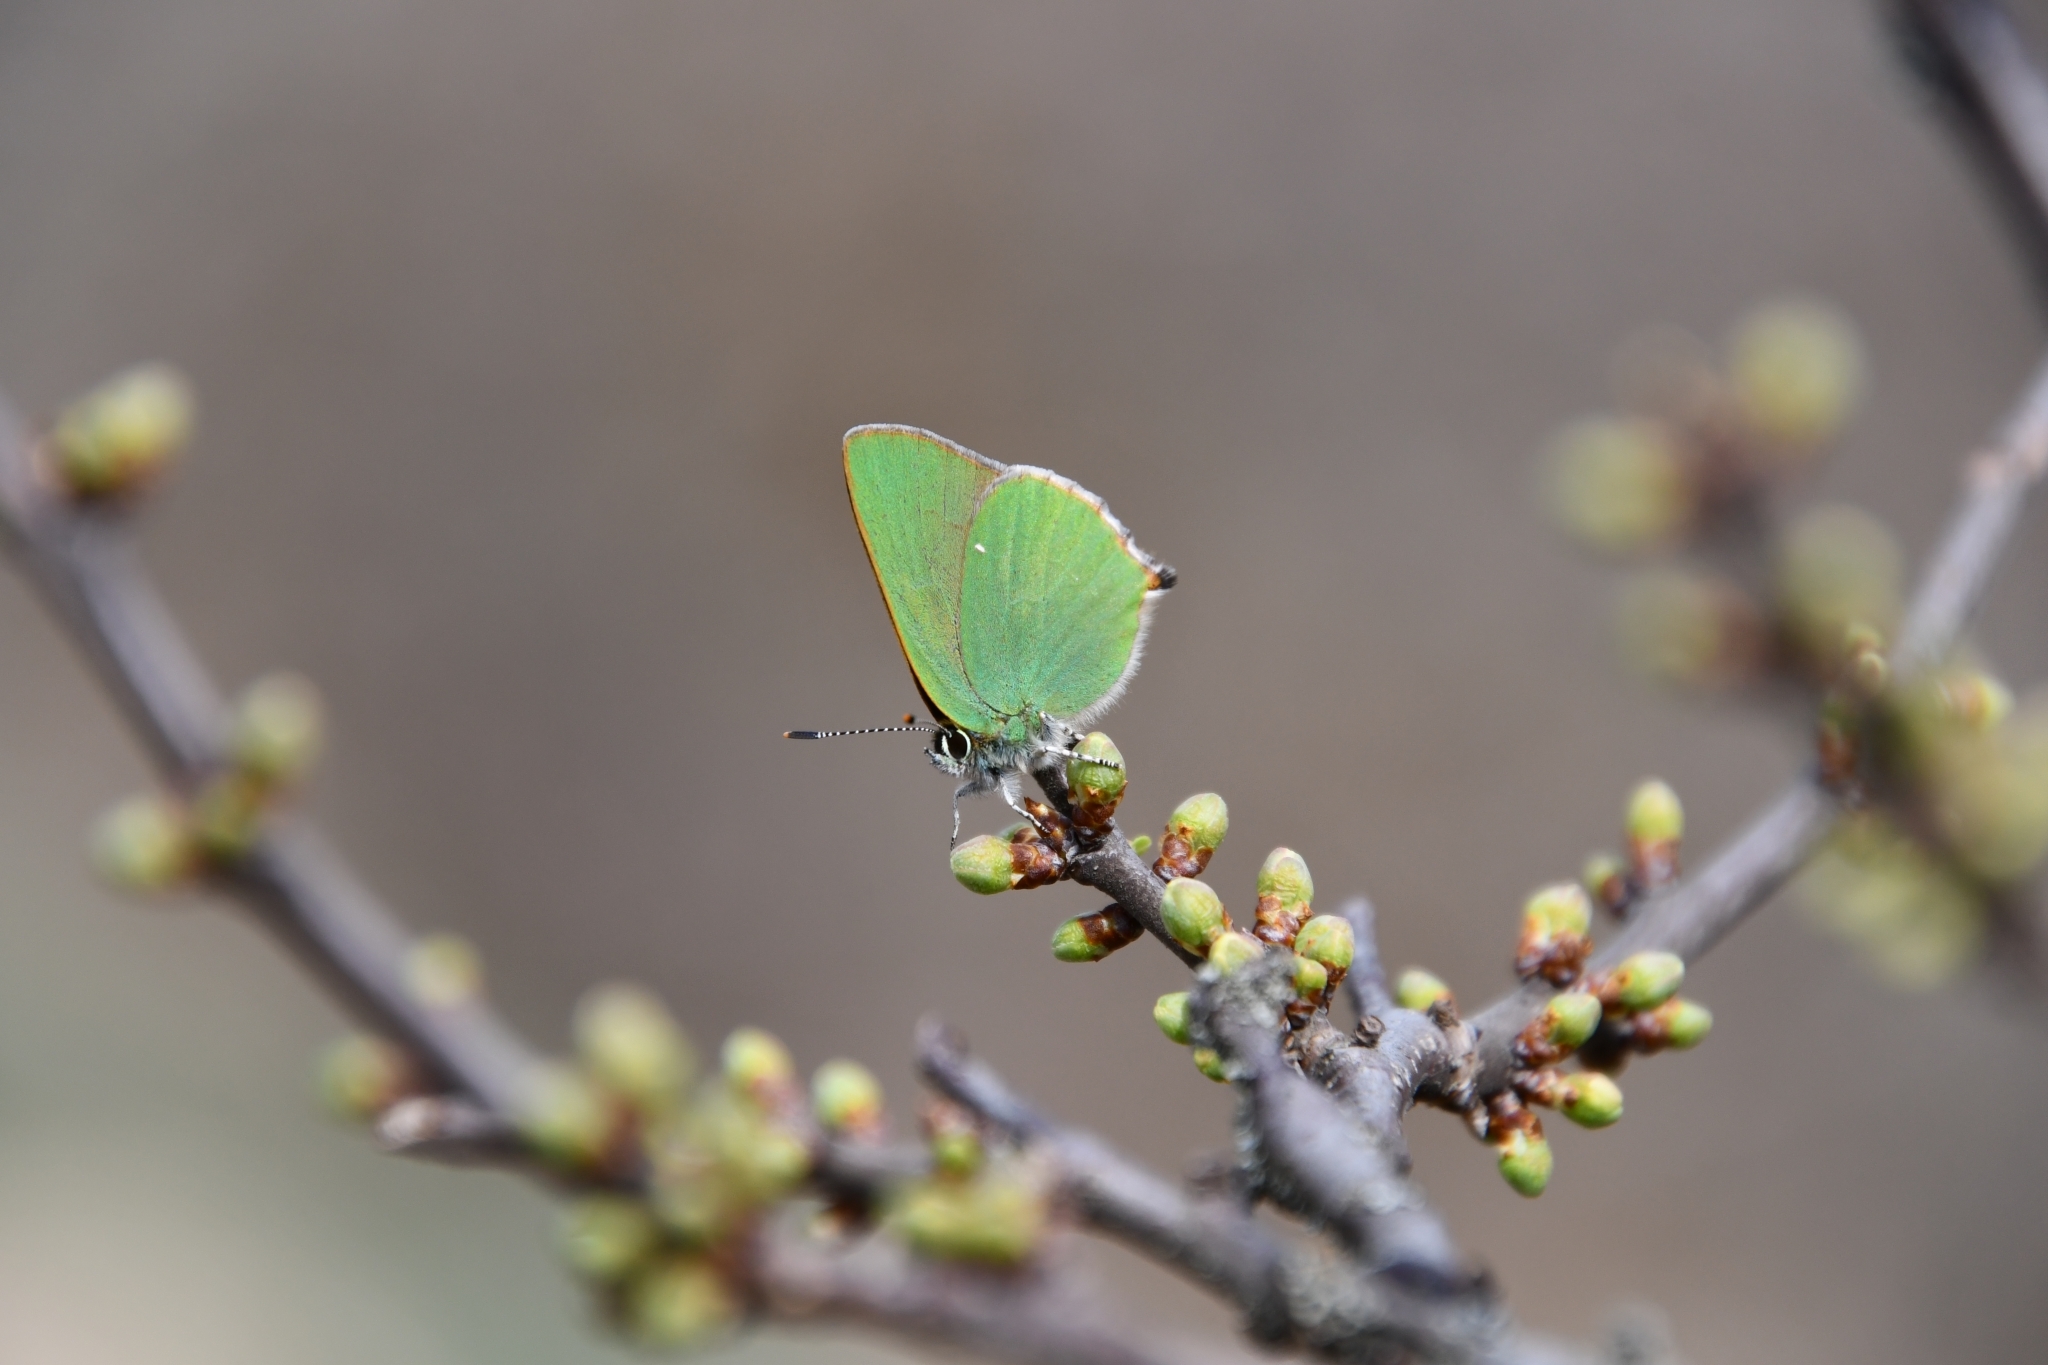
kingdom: Animalia
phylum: Arthropoda
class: Insecta
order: Lepidoptera
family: Lycaenidae
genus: Callophrys
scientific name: Callophrys rubi
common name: Green hairstreak
